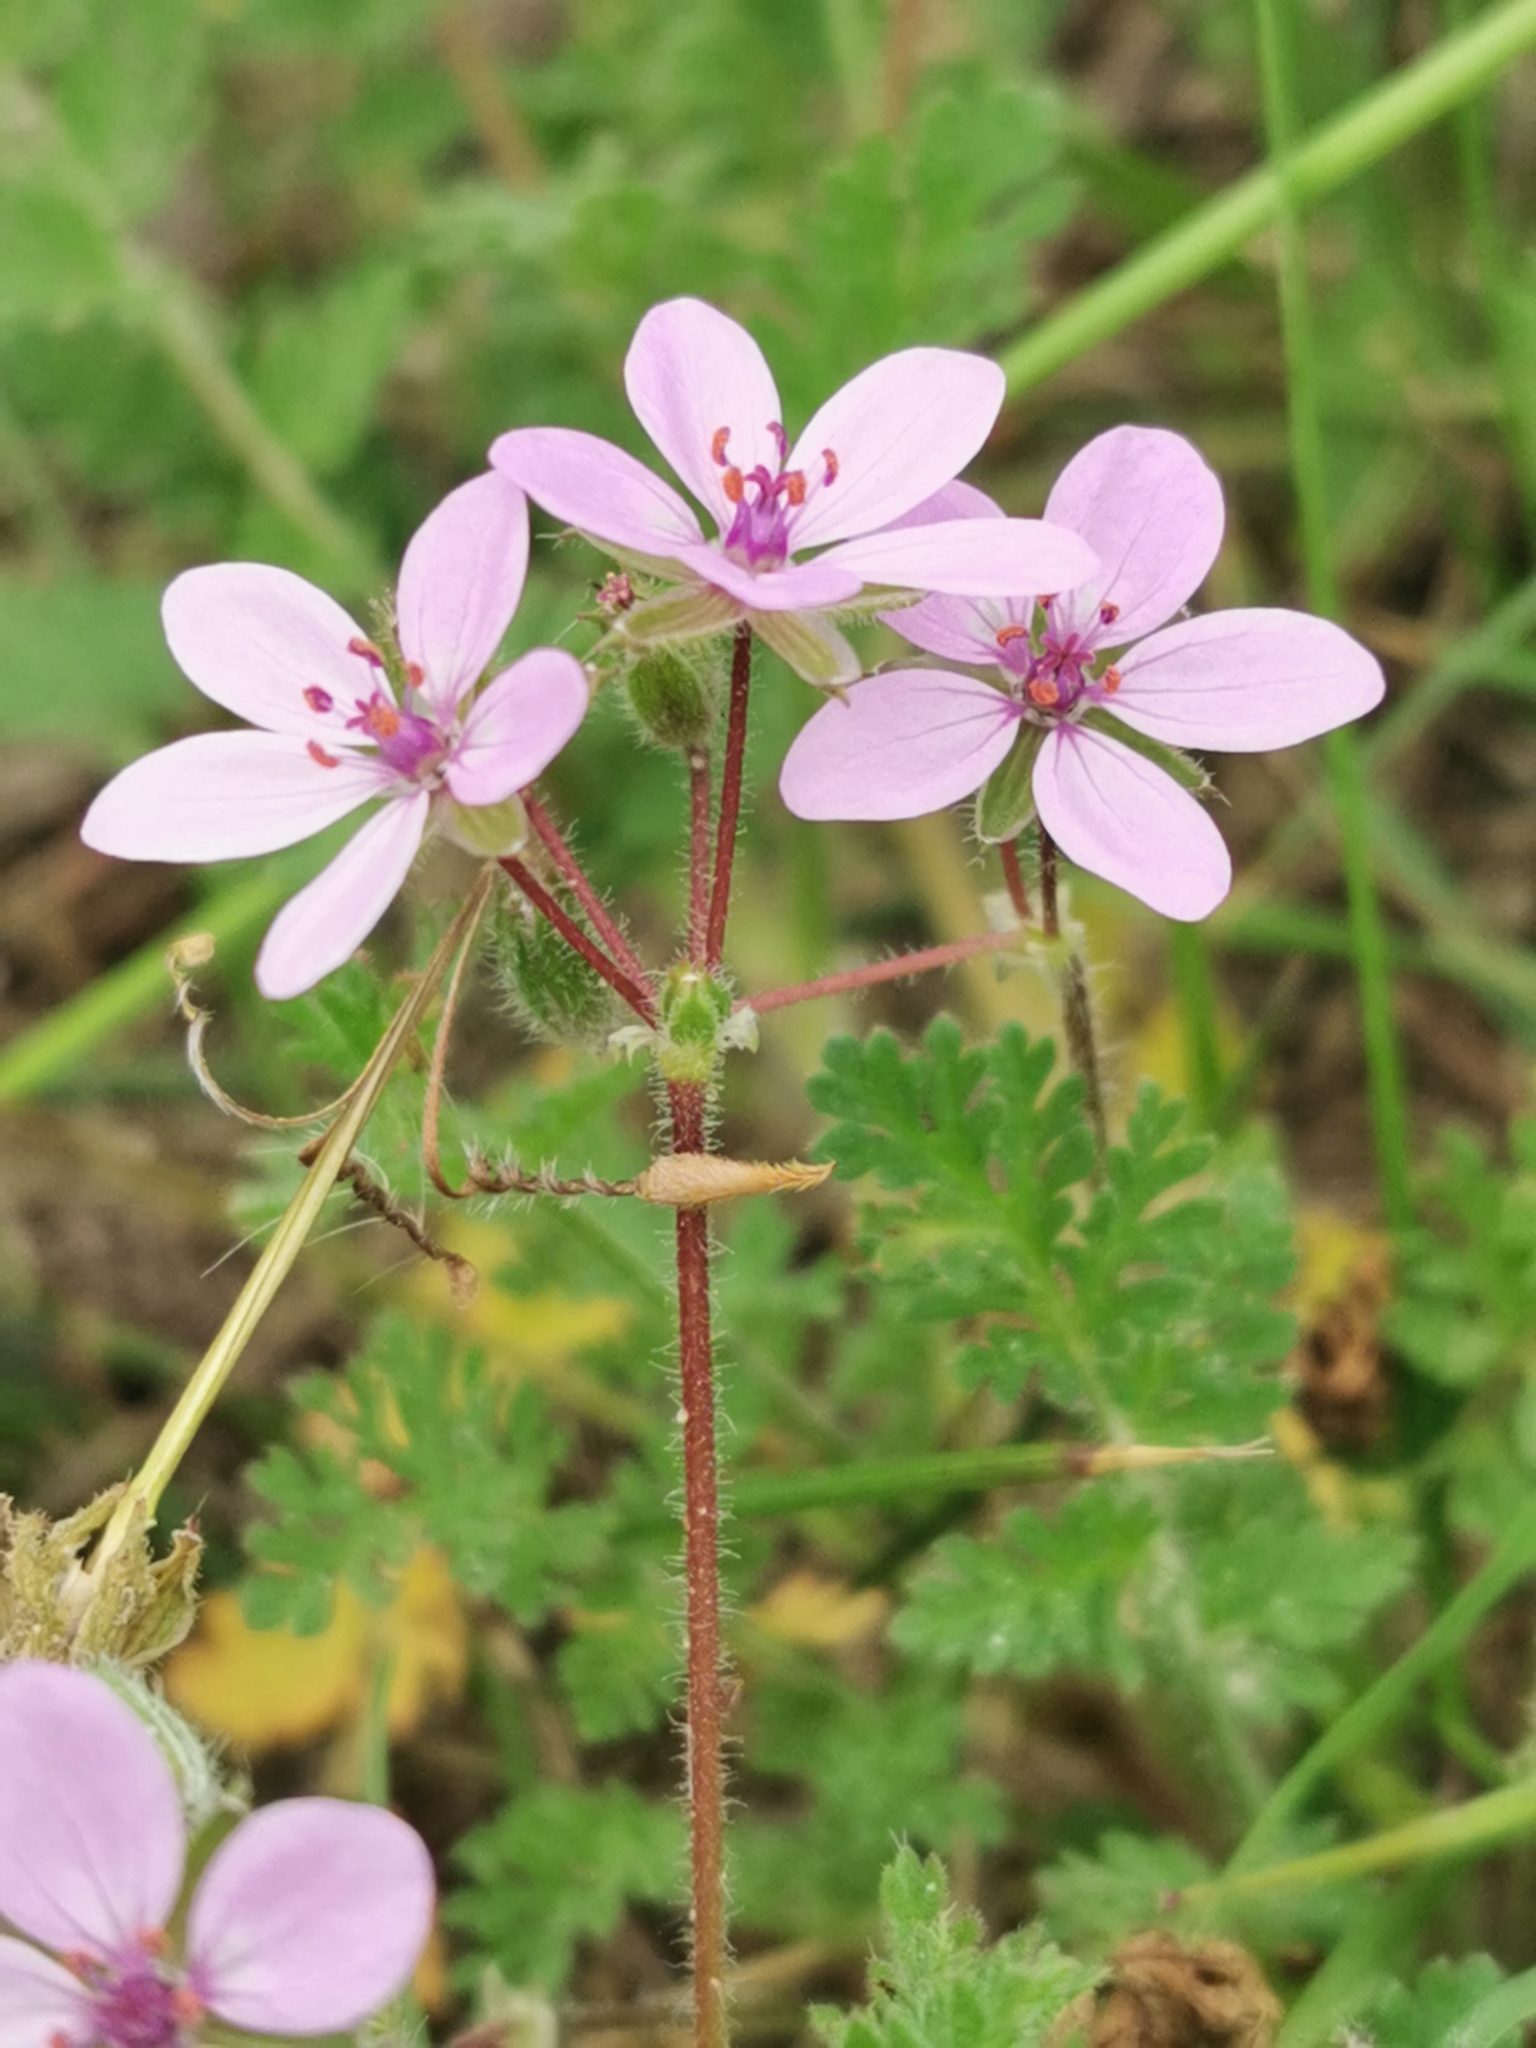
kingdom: Plantae
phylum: Tracheophyta
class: Magnoliopsida
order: Geraniales
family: Geraniaceae
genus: Erodium
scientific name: Erodium cicutarium
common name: Common stork's-bill
